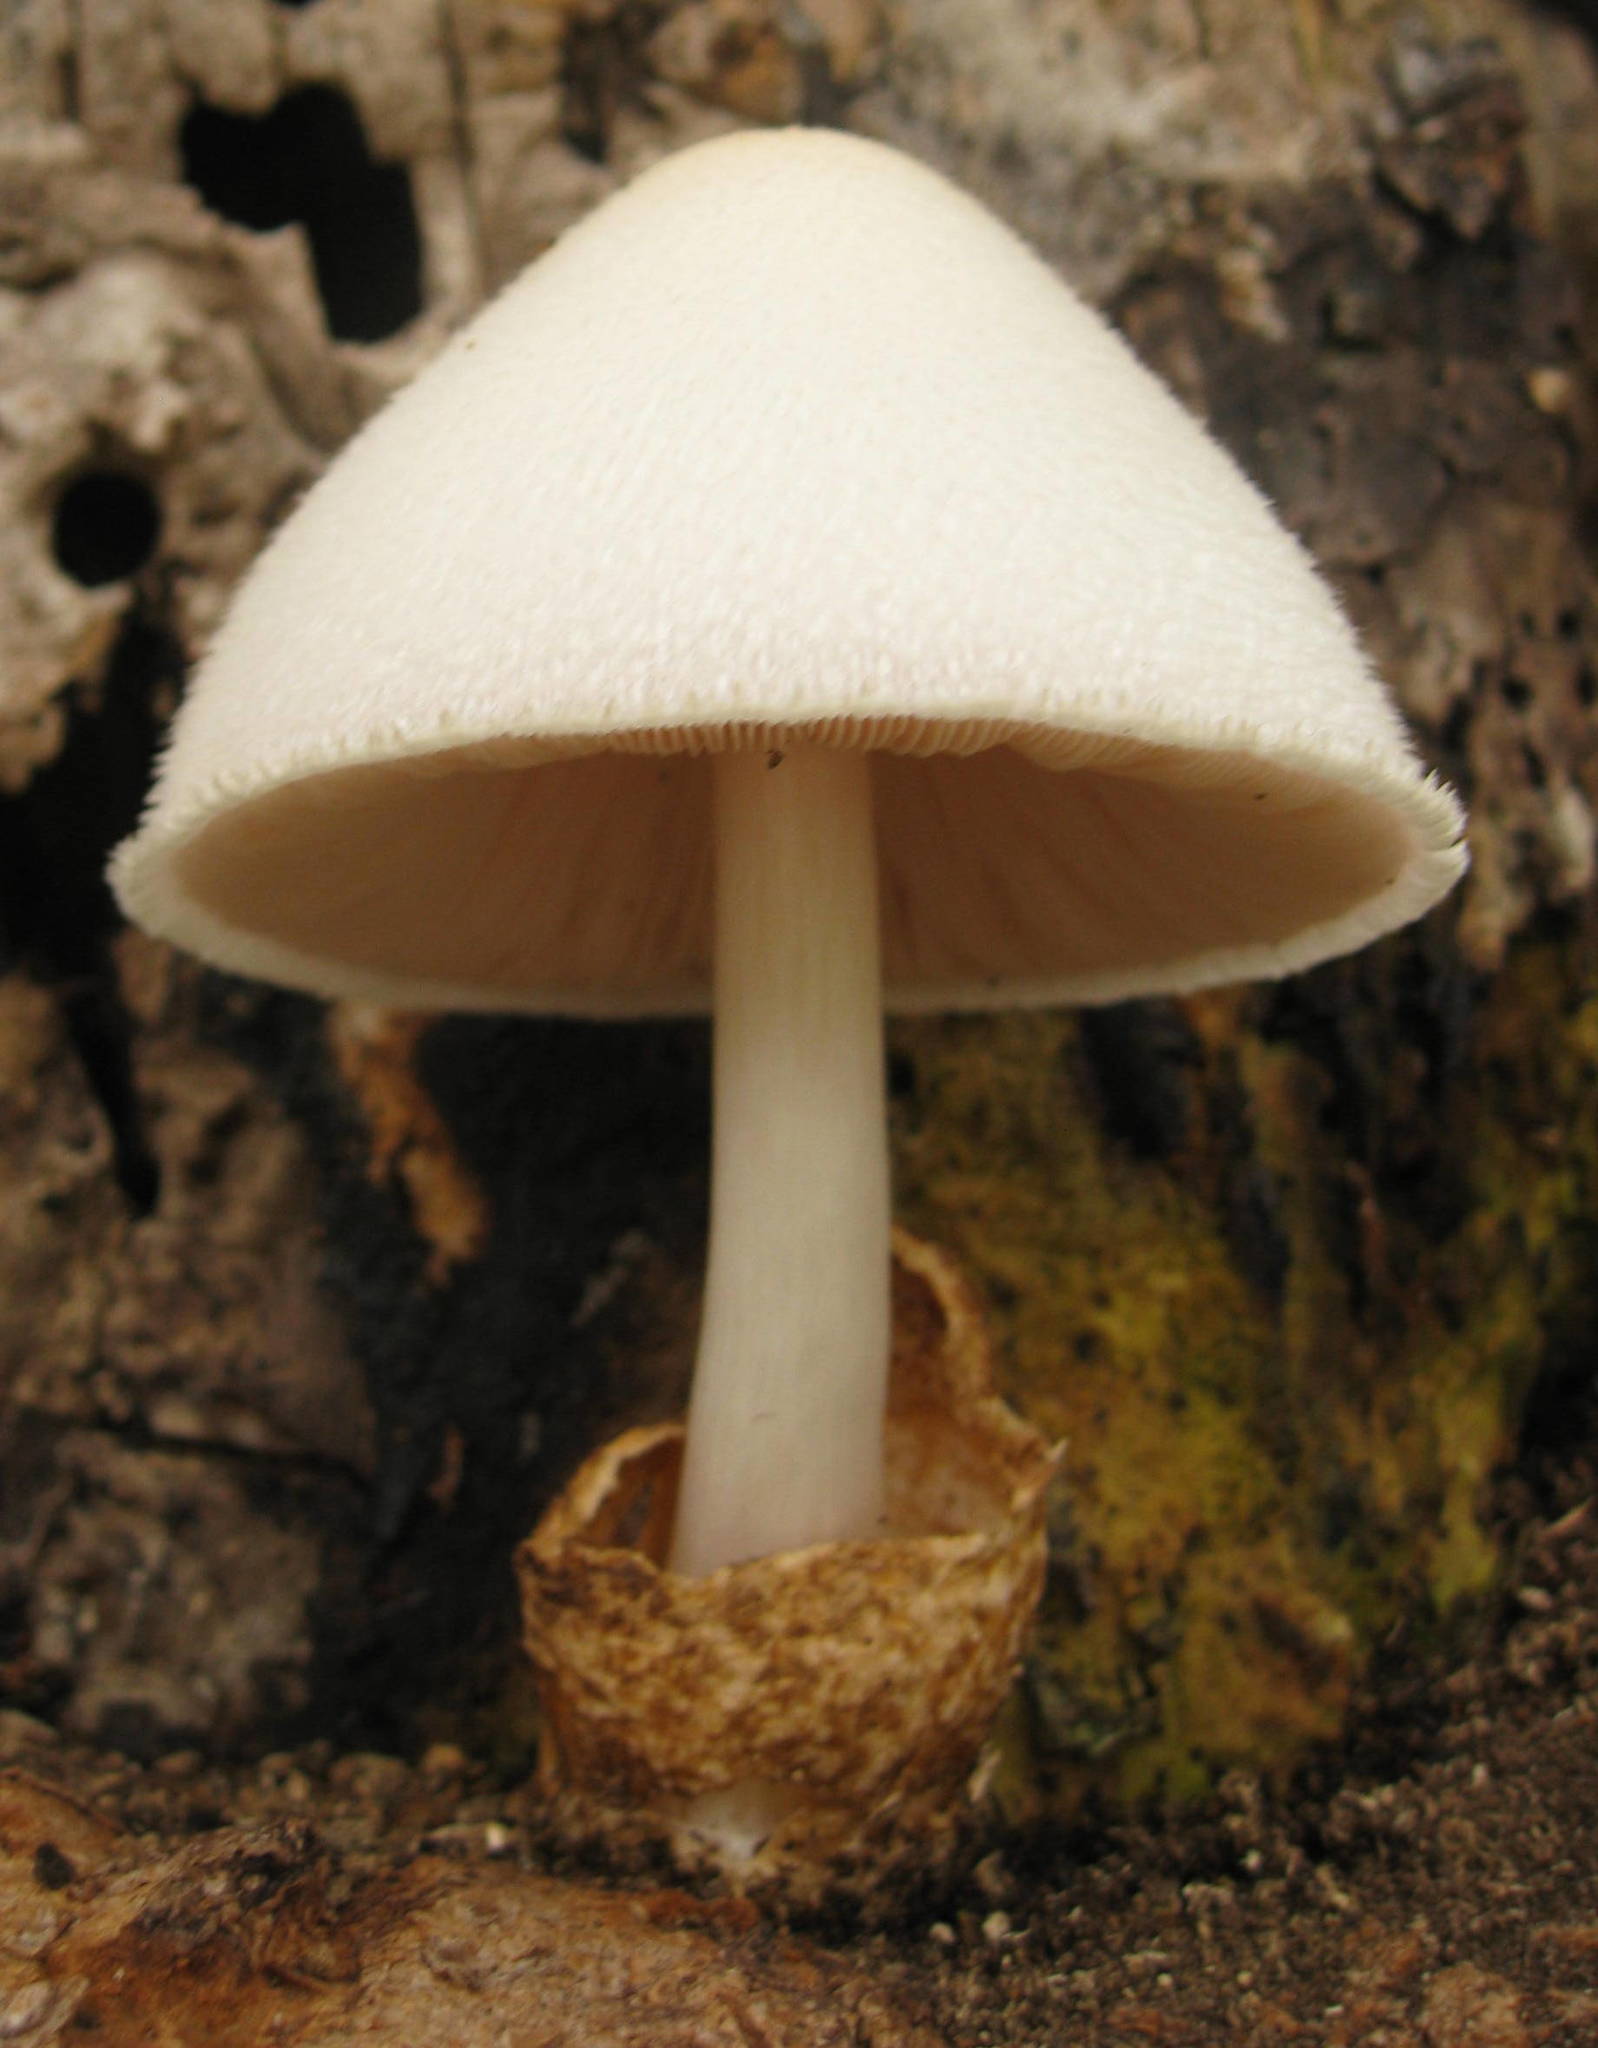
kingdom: Fungi
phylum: Basidiomycota
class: Agaricomycetes
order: Agaricales
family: Pluteaceae
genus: Volvariella
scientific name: Volvariella bombycina
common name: Silky rosegill
